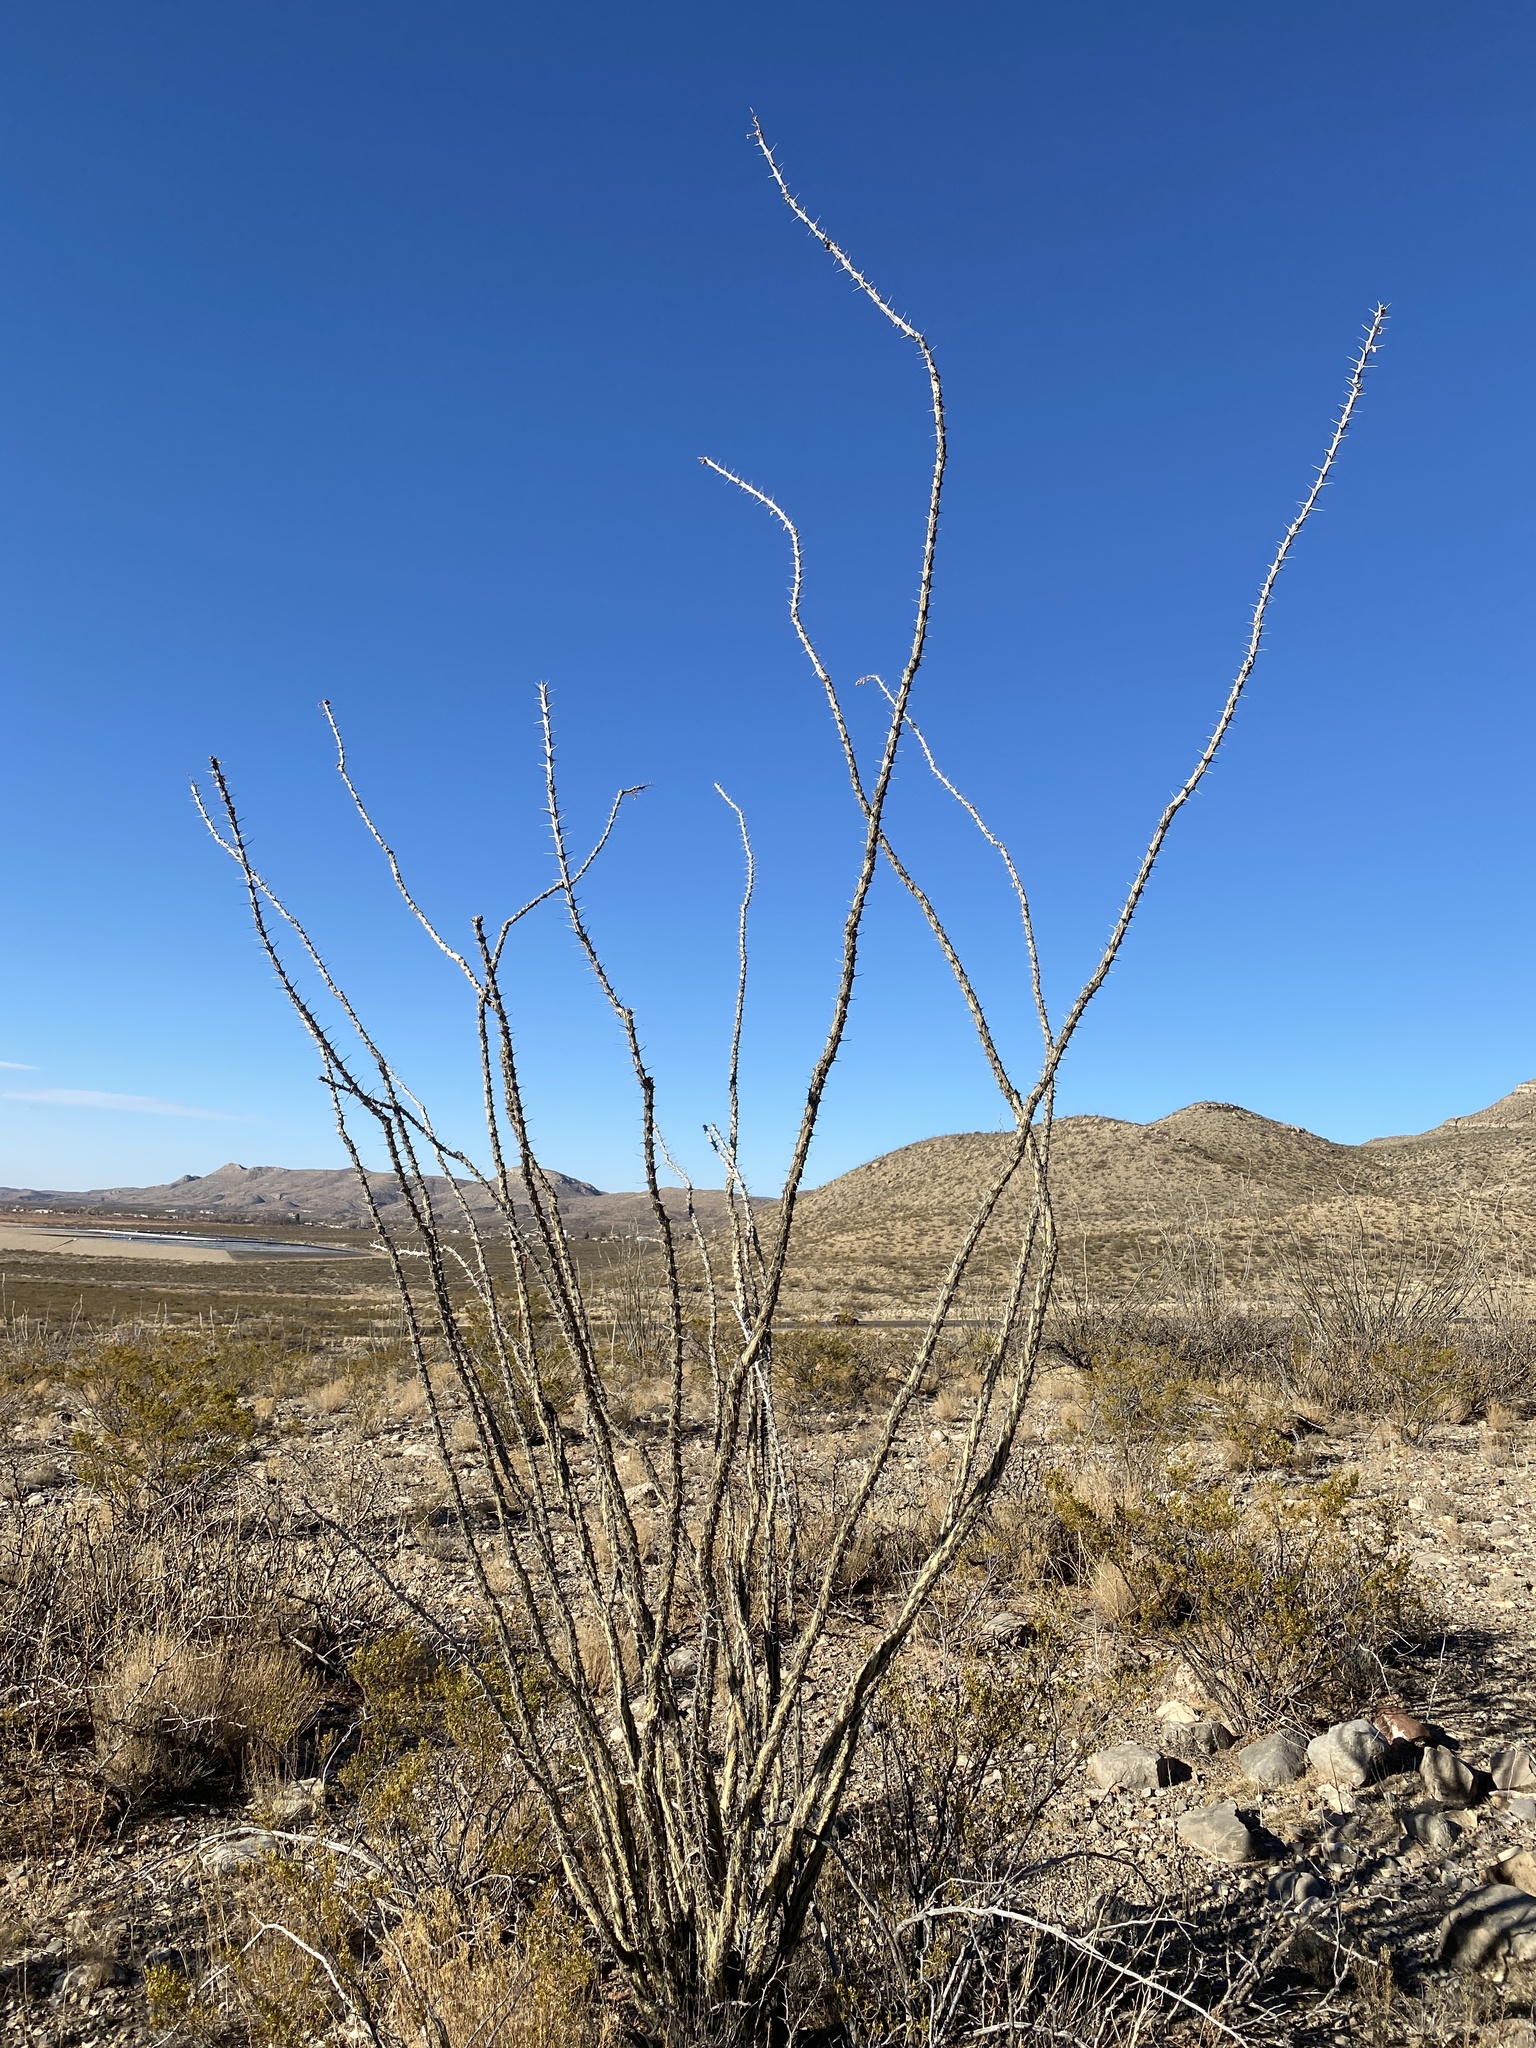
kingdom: Plantae
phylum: Tracheophyta
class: Magnoliopsida
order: Ericales
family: Fouquieriaceae
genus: Fouquieria
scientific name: Fouquieria splendens
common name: Vine-cactus
